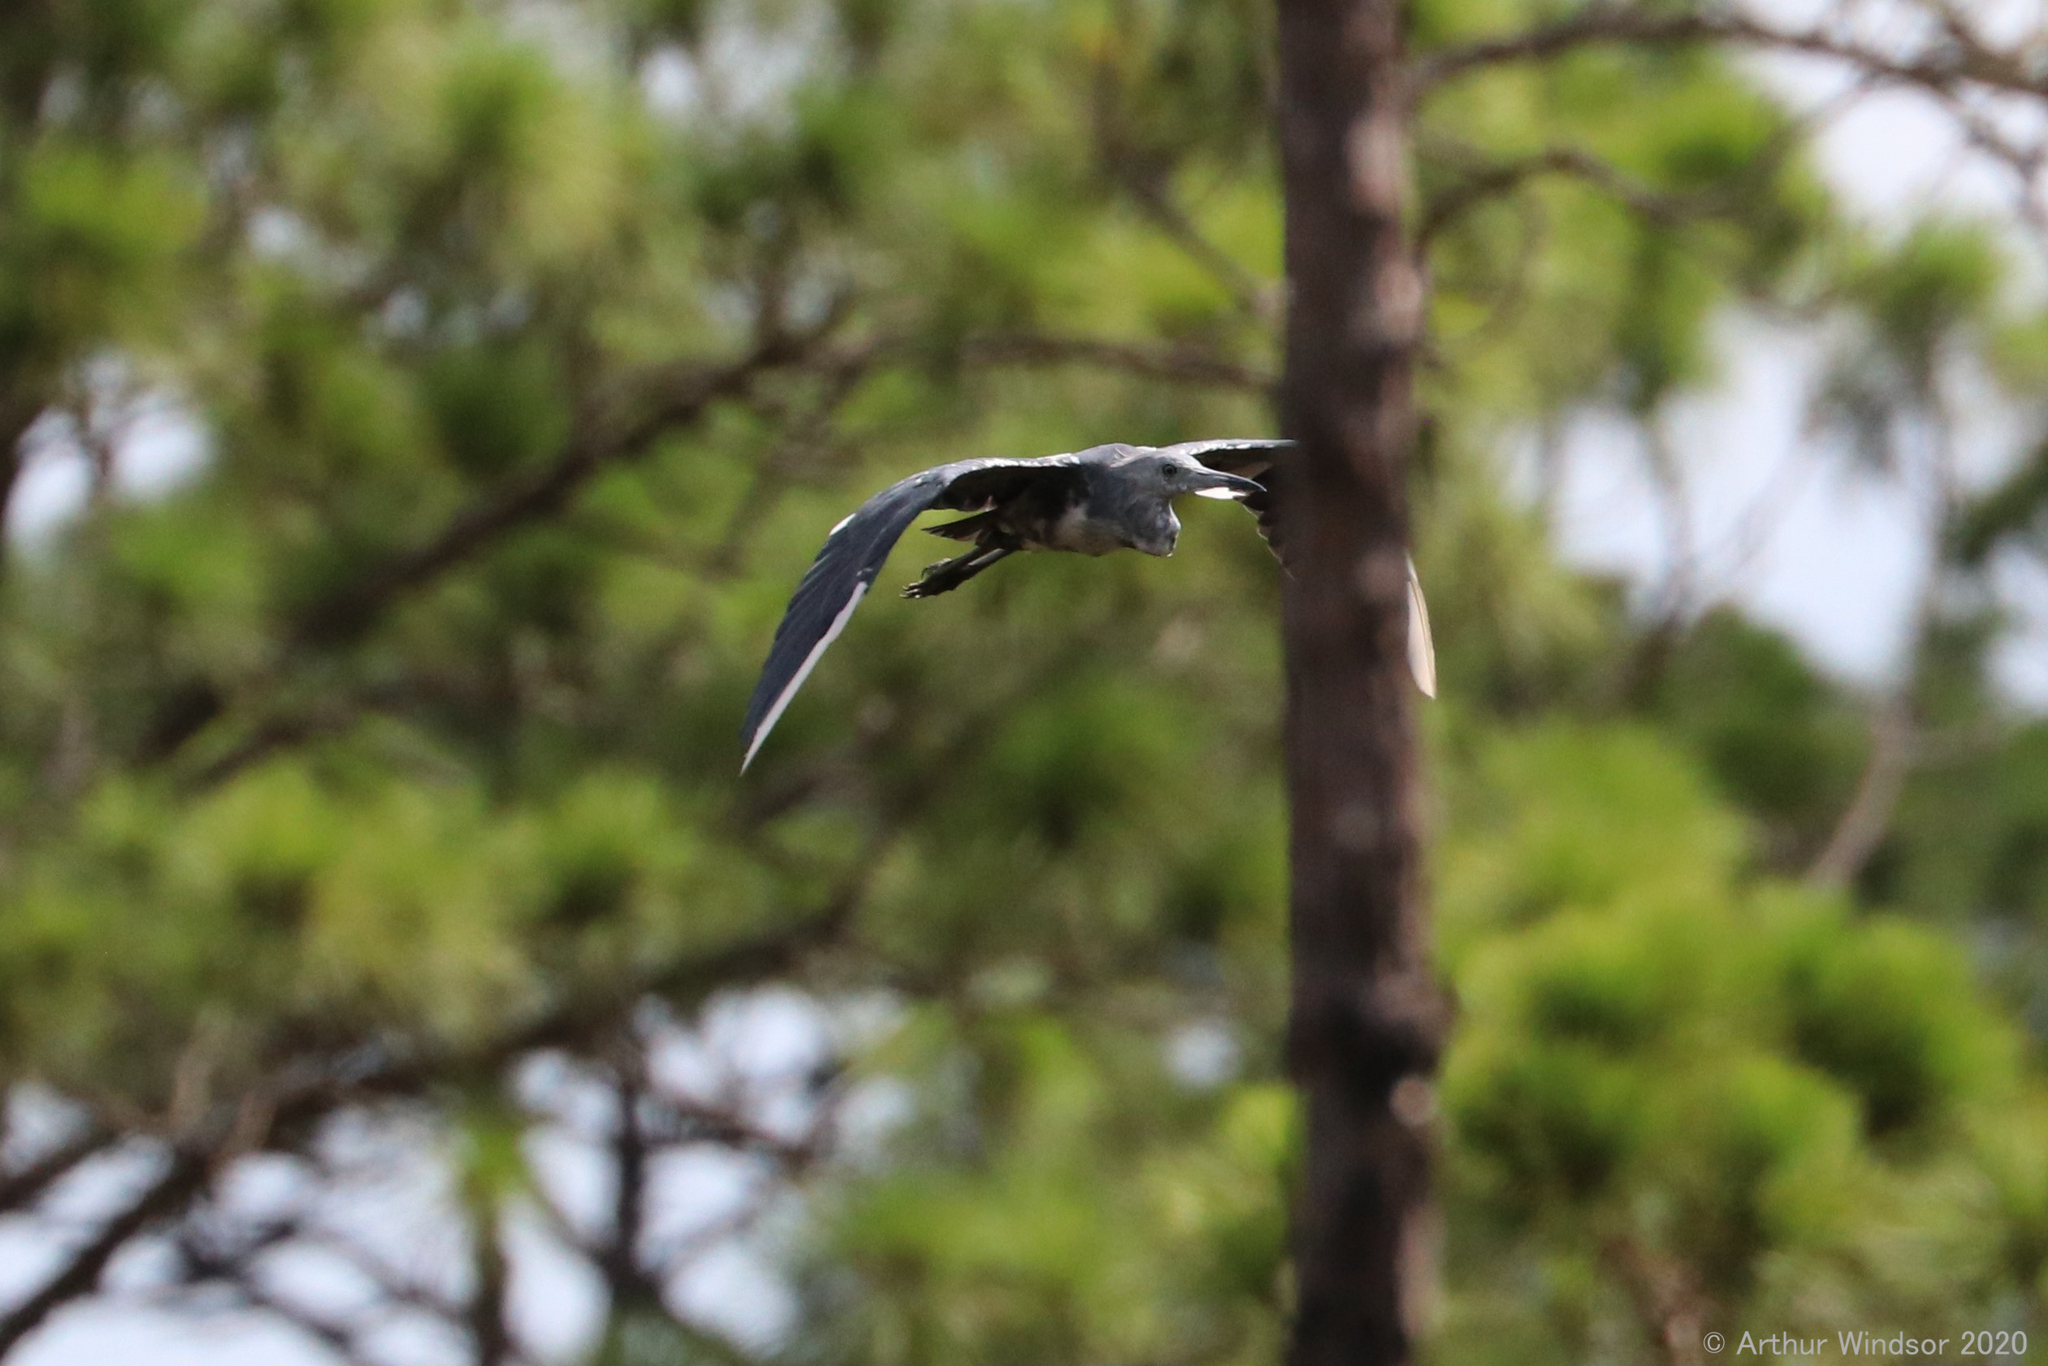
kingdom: Animalia
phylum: Chordata
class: Aves
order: Pelecaniformes
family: Ardeidae
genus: Egretta
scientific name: Egretta caerulea
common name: Little blue heron
